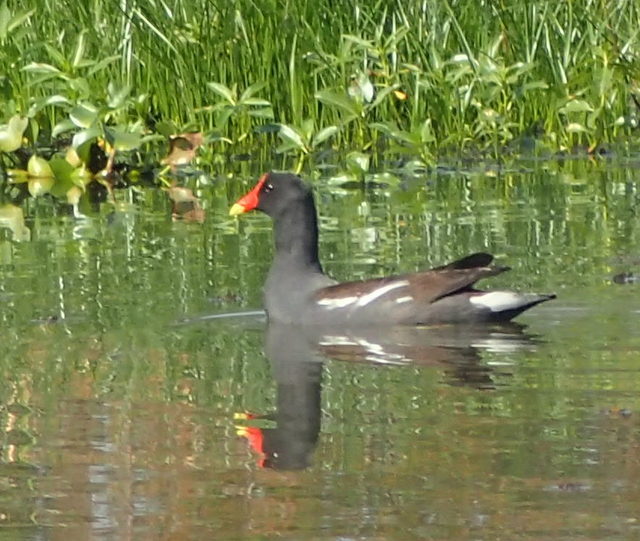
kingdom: Animalia
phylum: Chordata
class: Aves
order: Gruiformes
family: Rallidae
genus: Gallinula
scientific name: Gallinula chloropus
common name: Common moorhen
